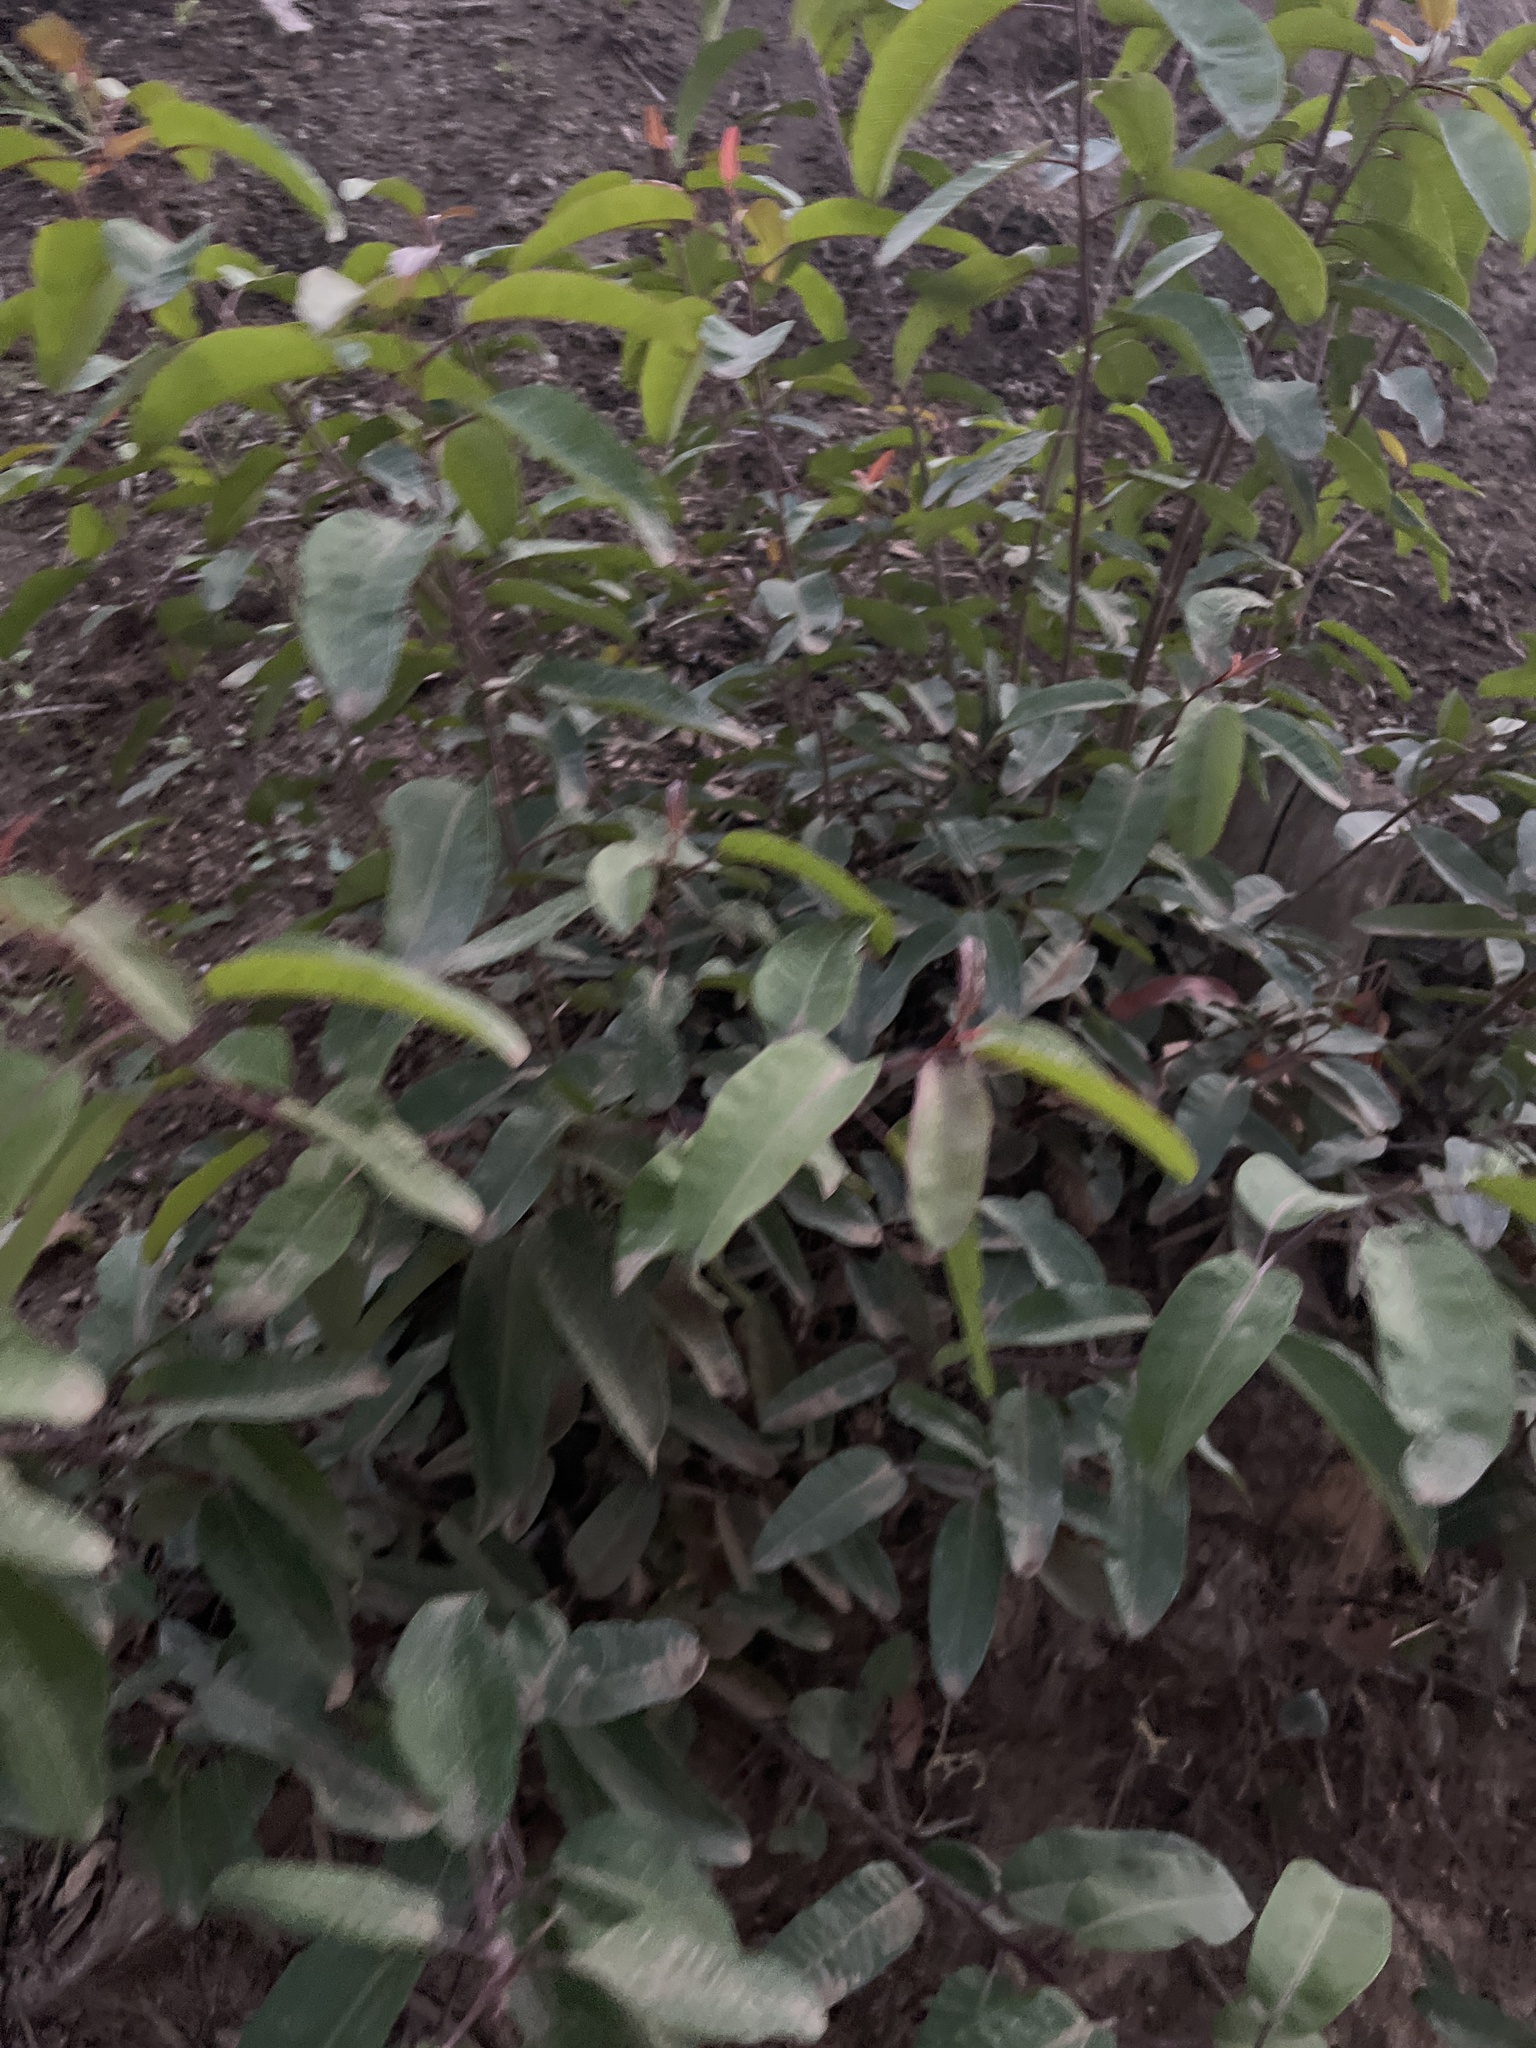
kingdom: Plantae
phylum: Tracheophyta
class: Magnoliopsida
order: Sapindales
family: Anacardiaceae
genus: Malosma
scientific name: Malosma laurina
